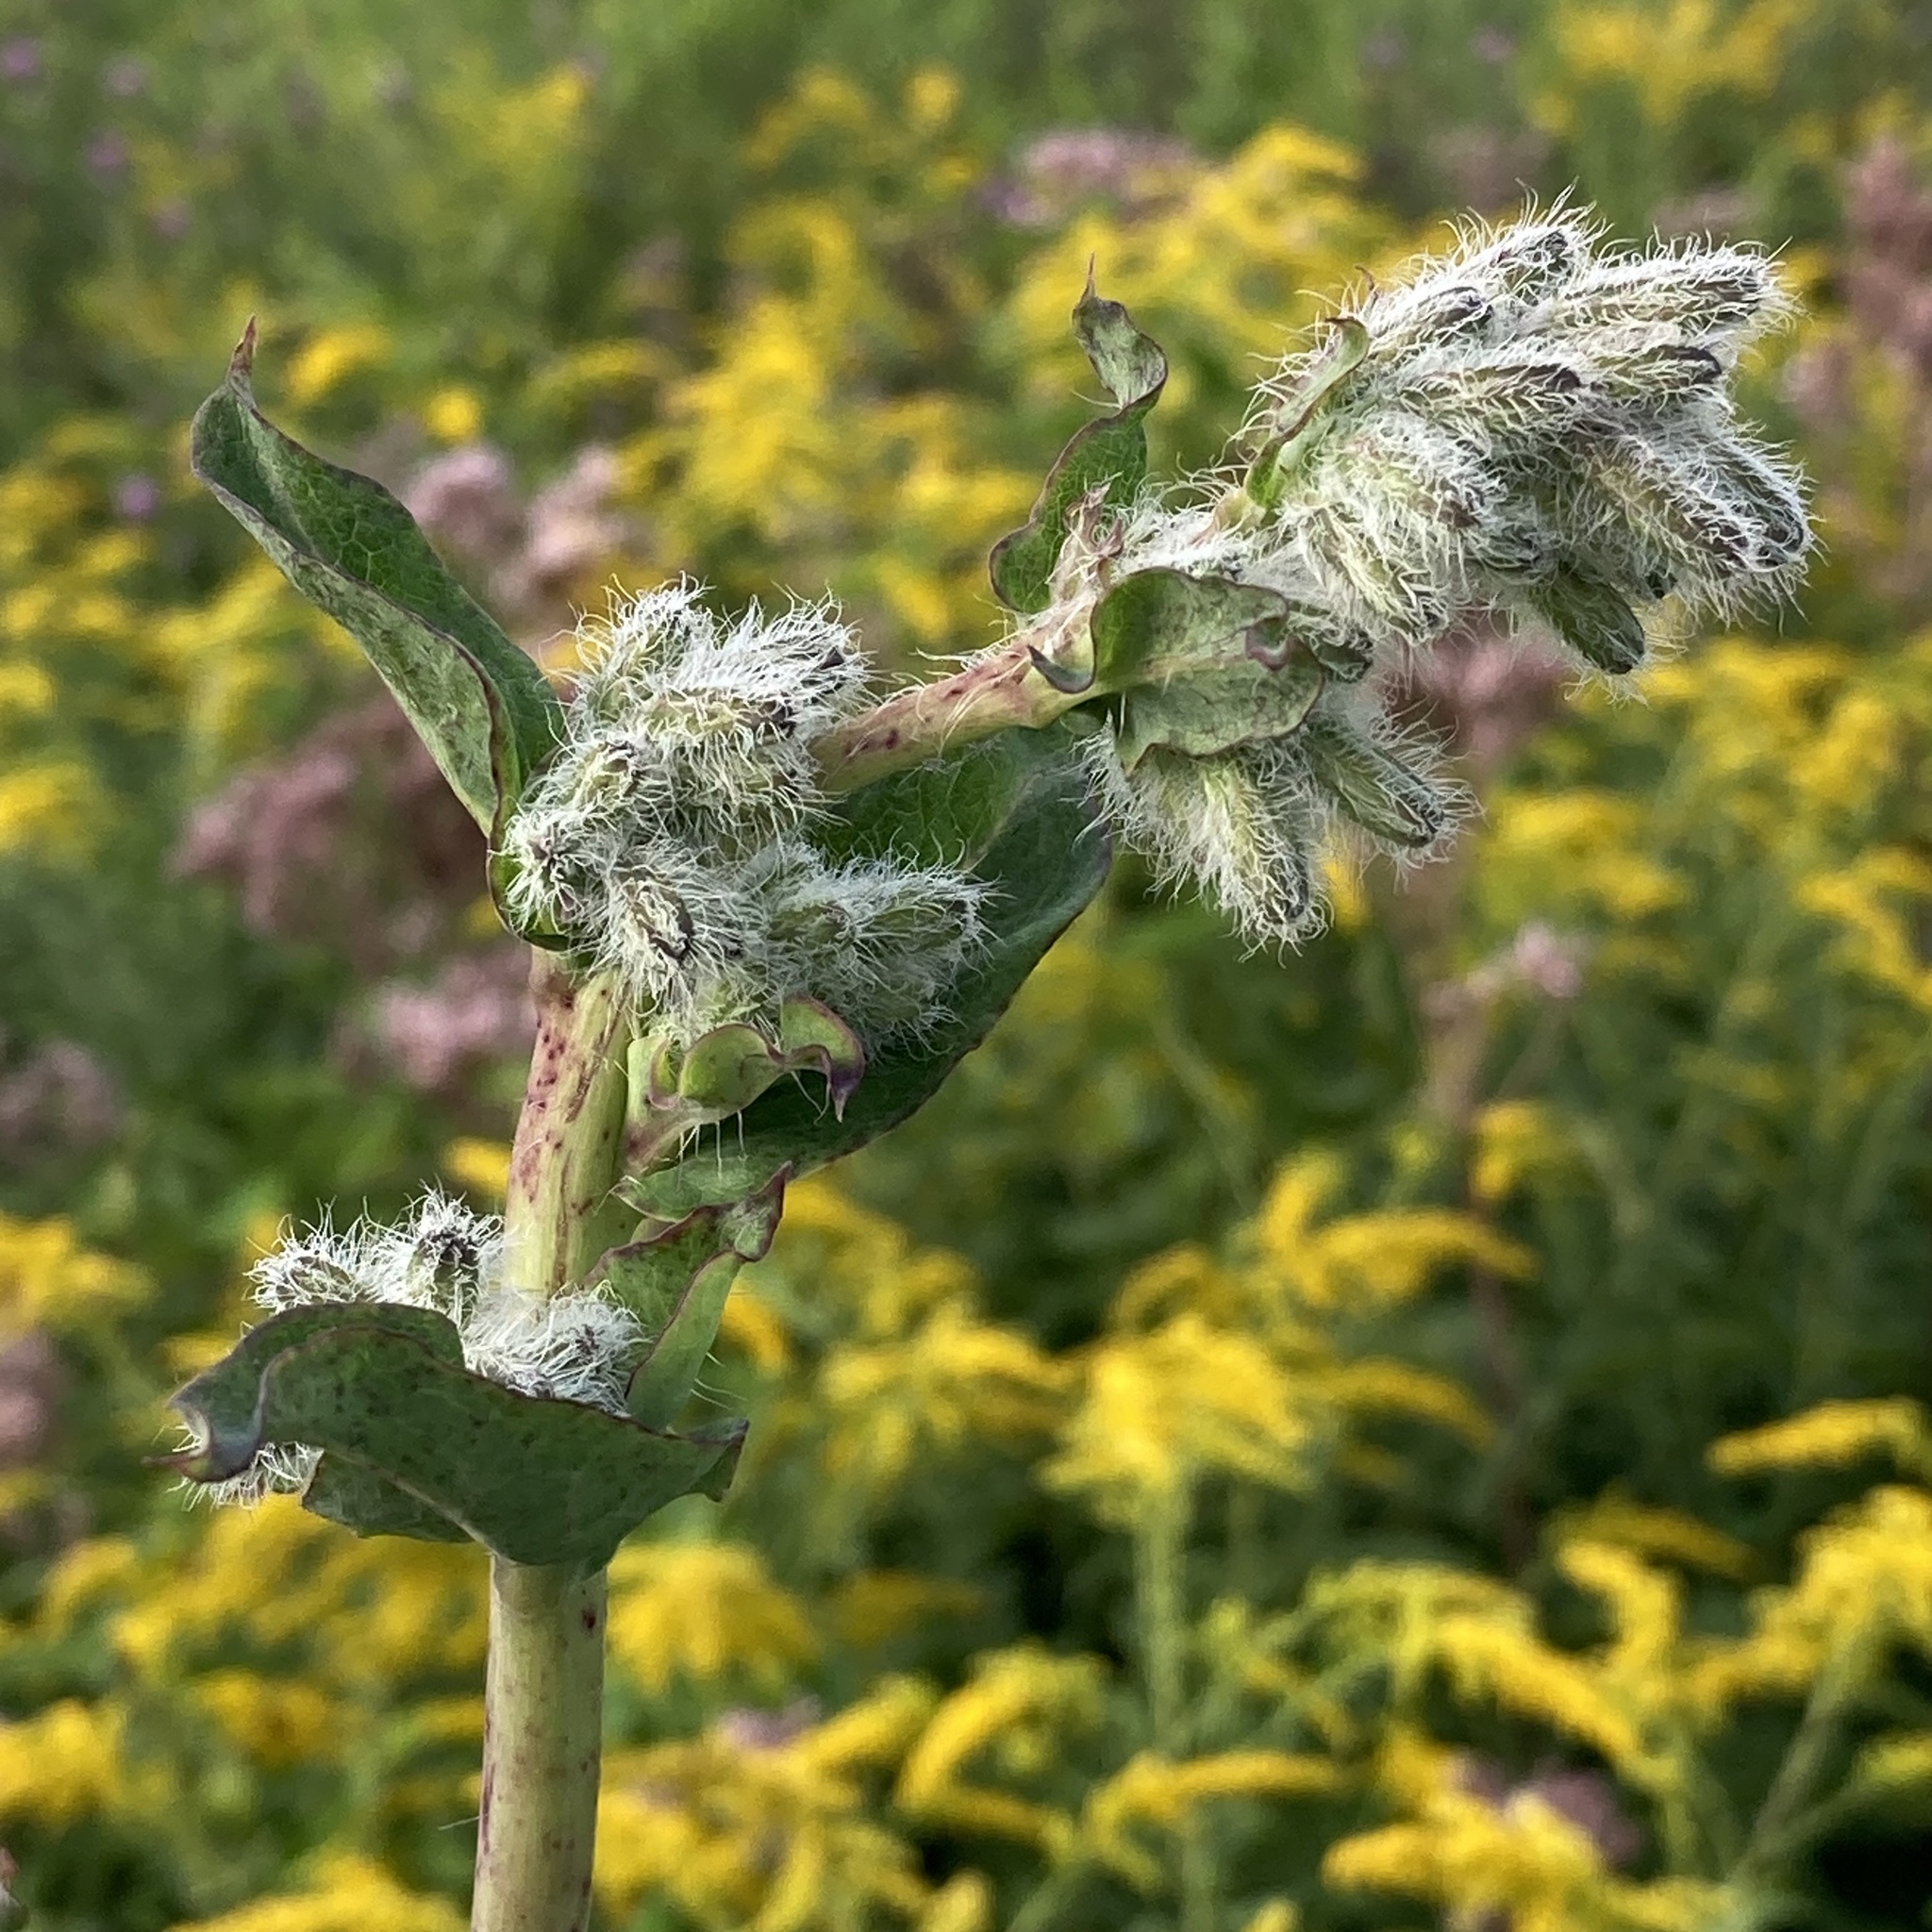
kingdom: Plantae
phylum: Tracheophyta
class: Magnoliopsida
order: Asterales
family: Asteraceae
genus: Nabalus
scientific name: Nabalus racemosus
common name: Glaucous white lettuce
